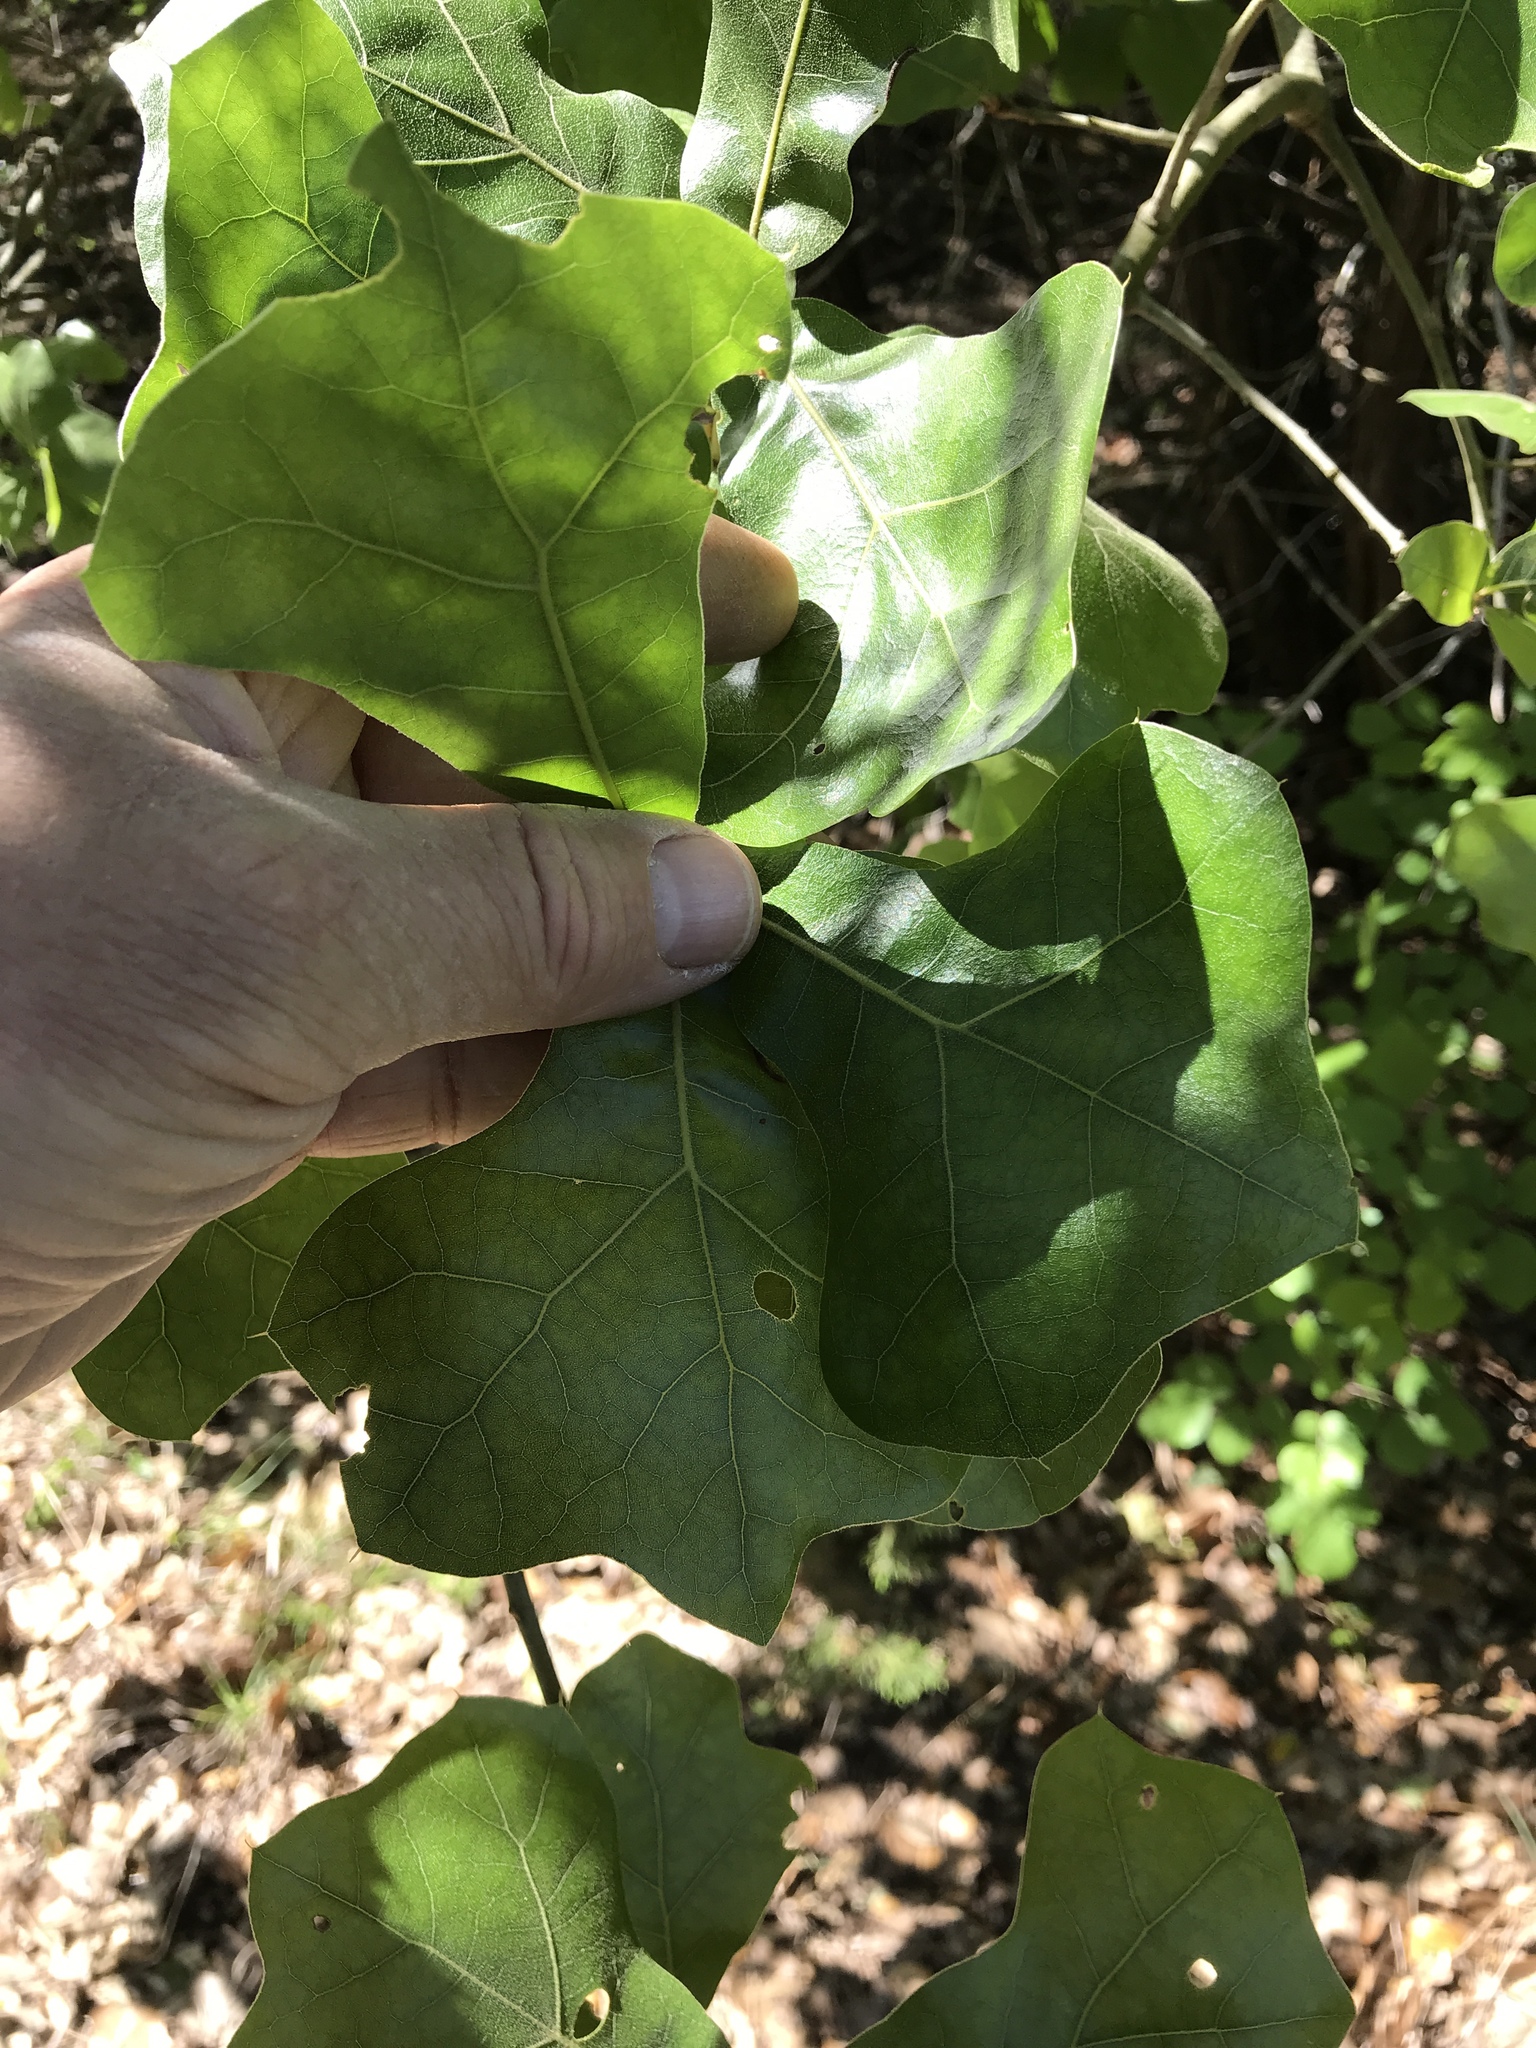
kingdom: Plantae
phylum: Tracheophyta
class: Magnoliopsida
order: Fagales
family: Fagaceae
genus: Quercus
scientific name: Quercus marilandica
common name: Blackjack oak
